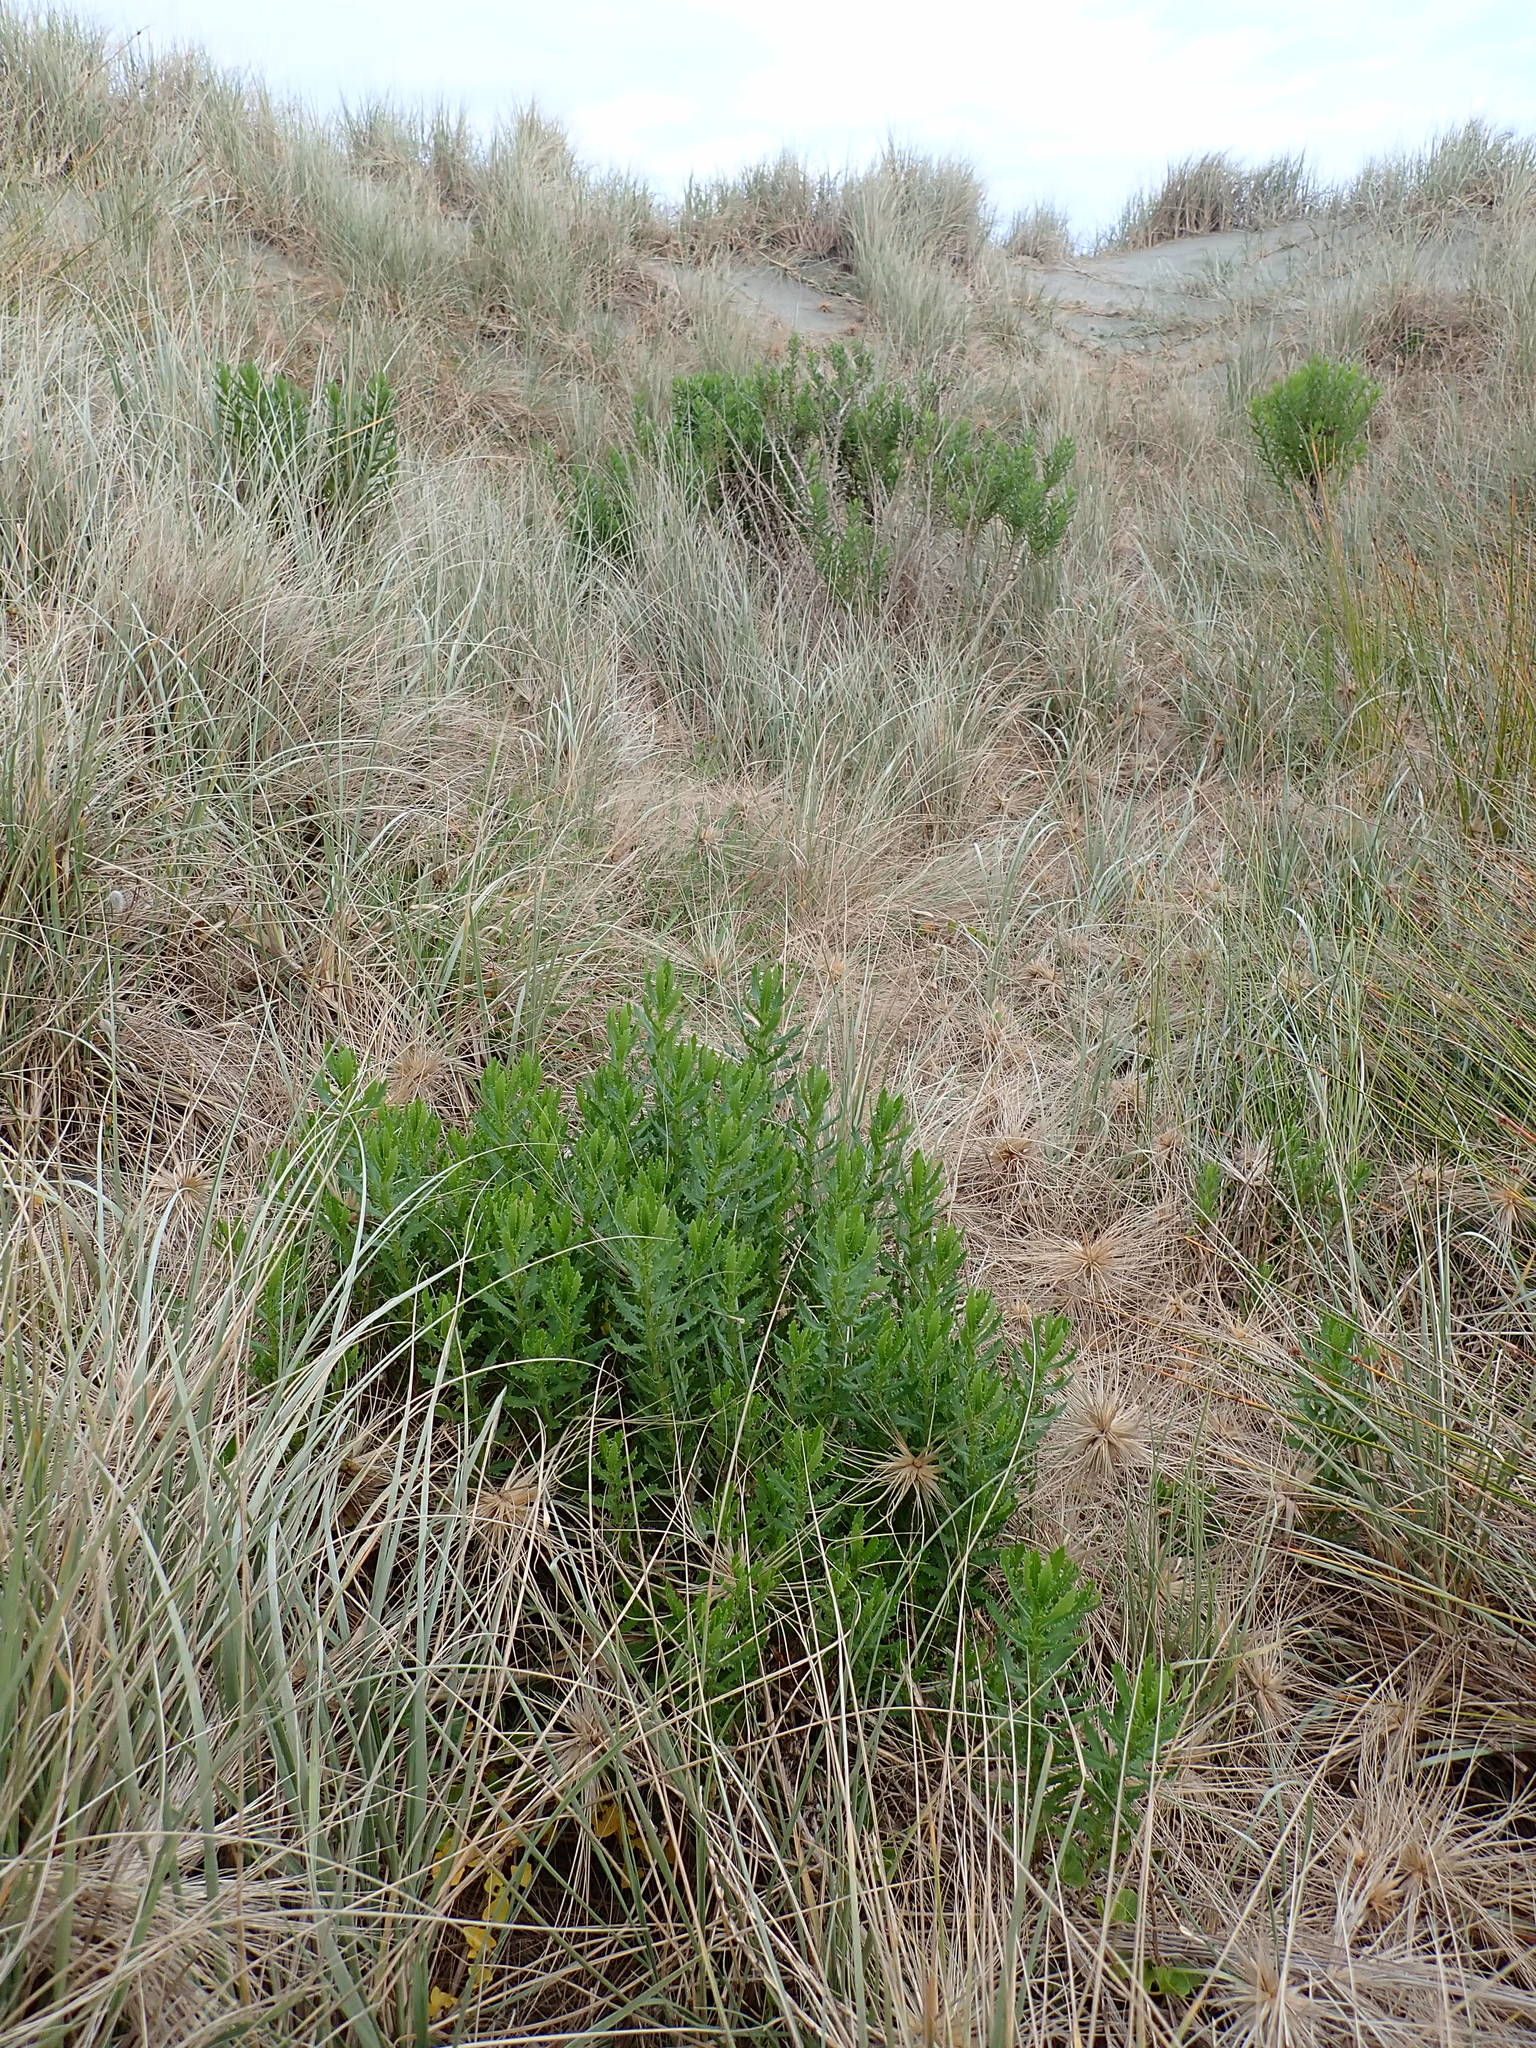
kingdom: Plantae
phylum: Tracheophyta
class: Magnoliopsida
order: Asterales
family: Asteraceae
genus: Senecio
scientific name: Senecio glastifolius
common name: Woad-leaved ragwort
